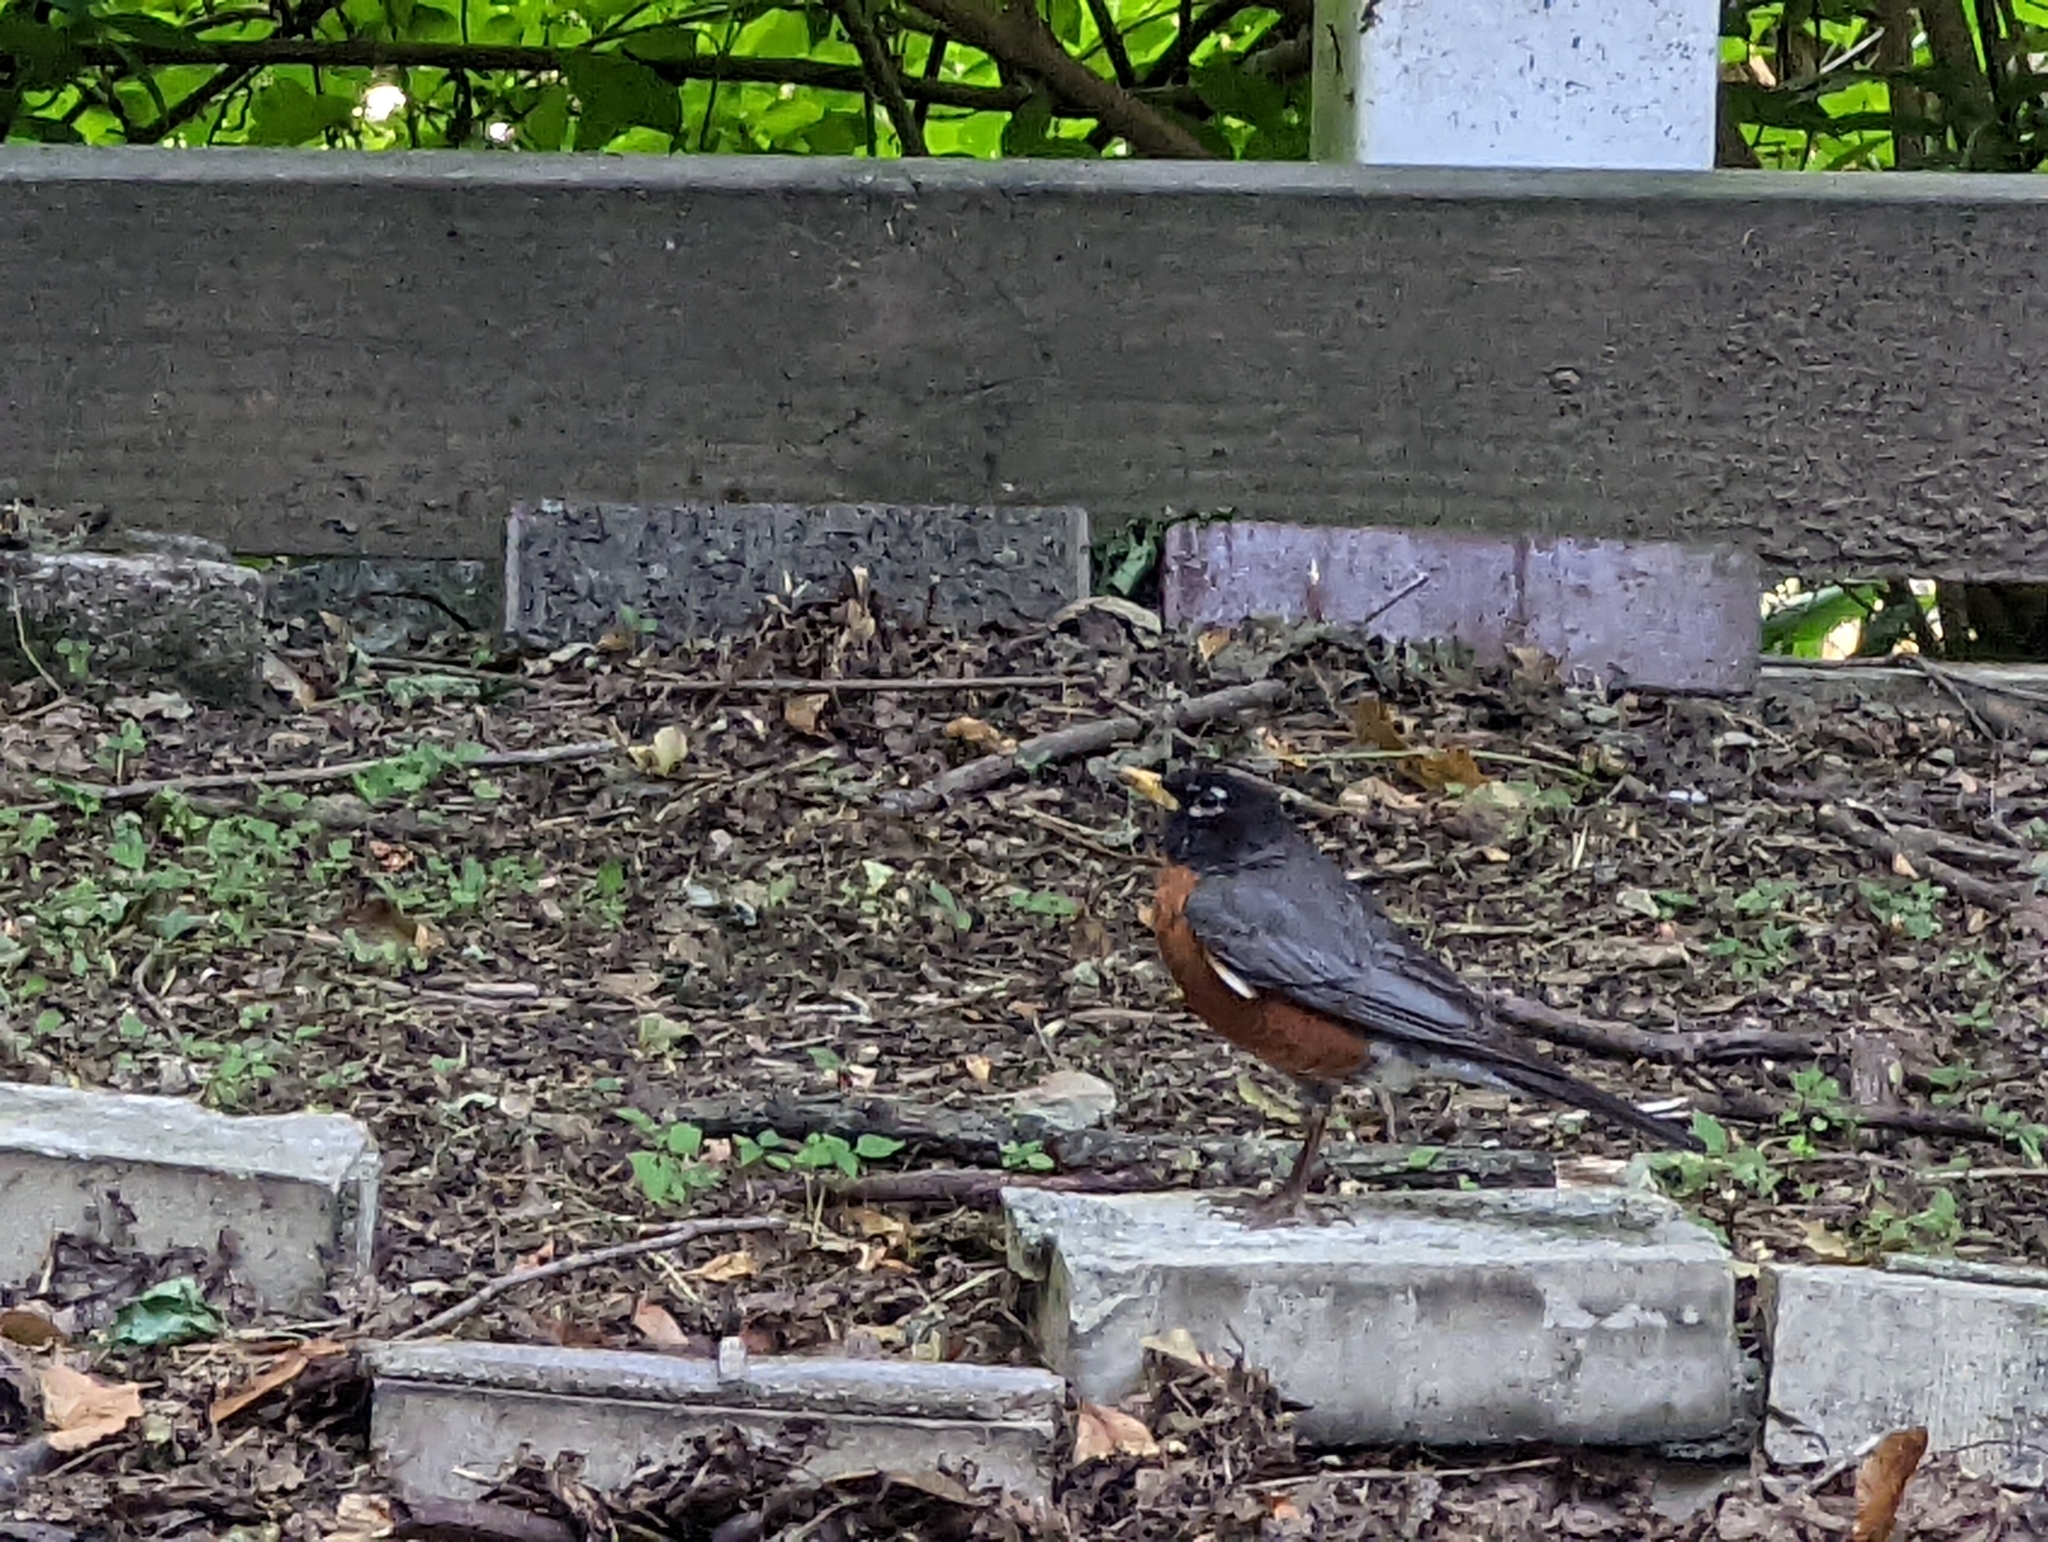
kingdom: Animalia
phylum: Chordata
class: Aves
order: Passeriformes
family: Turdidae
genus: Turdus
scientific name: Turdus migratorius
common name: American robin
